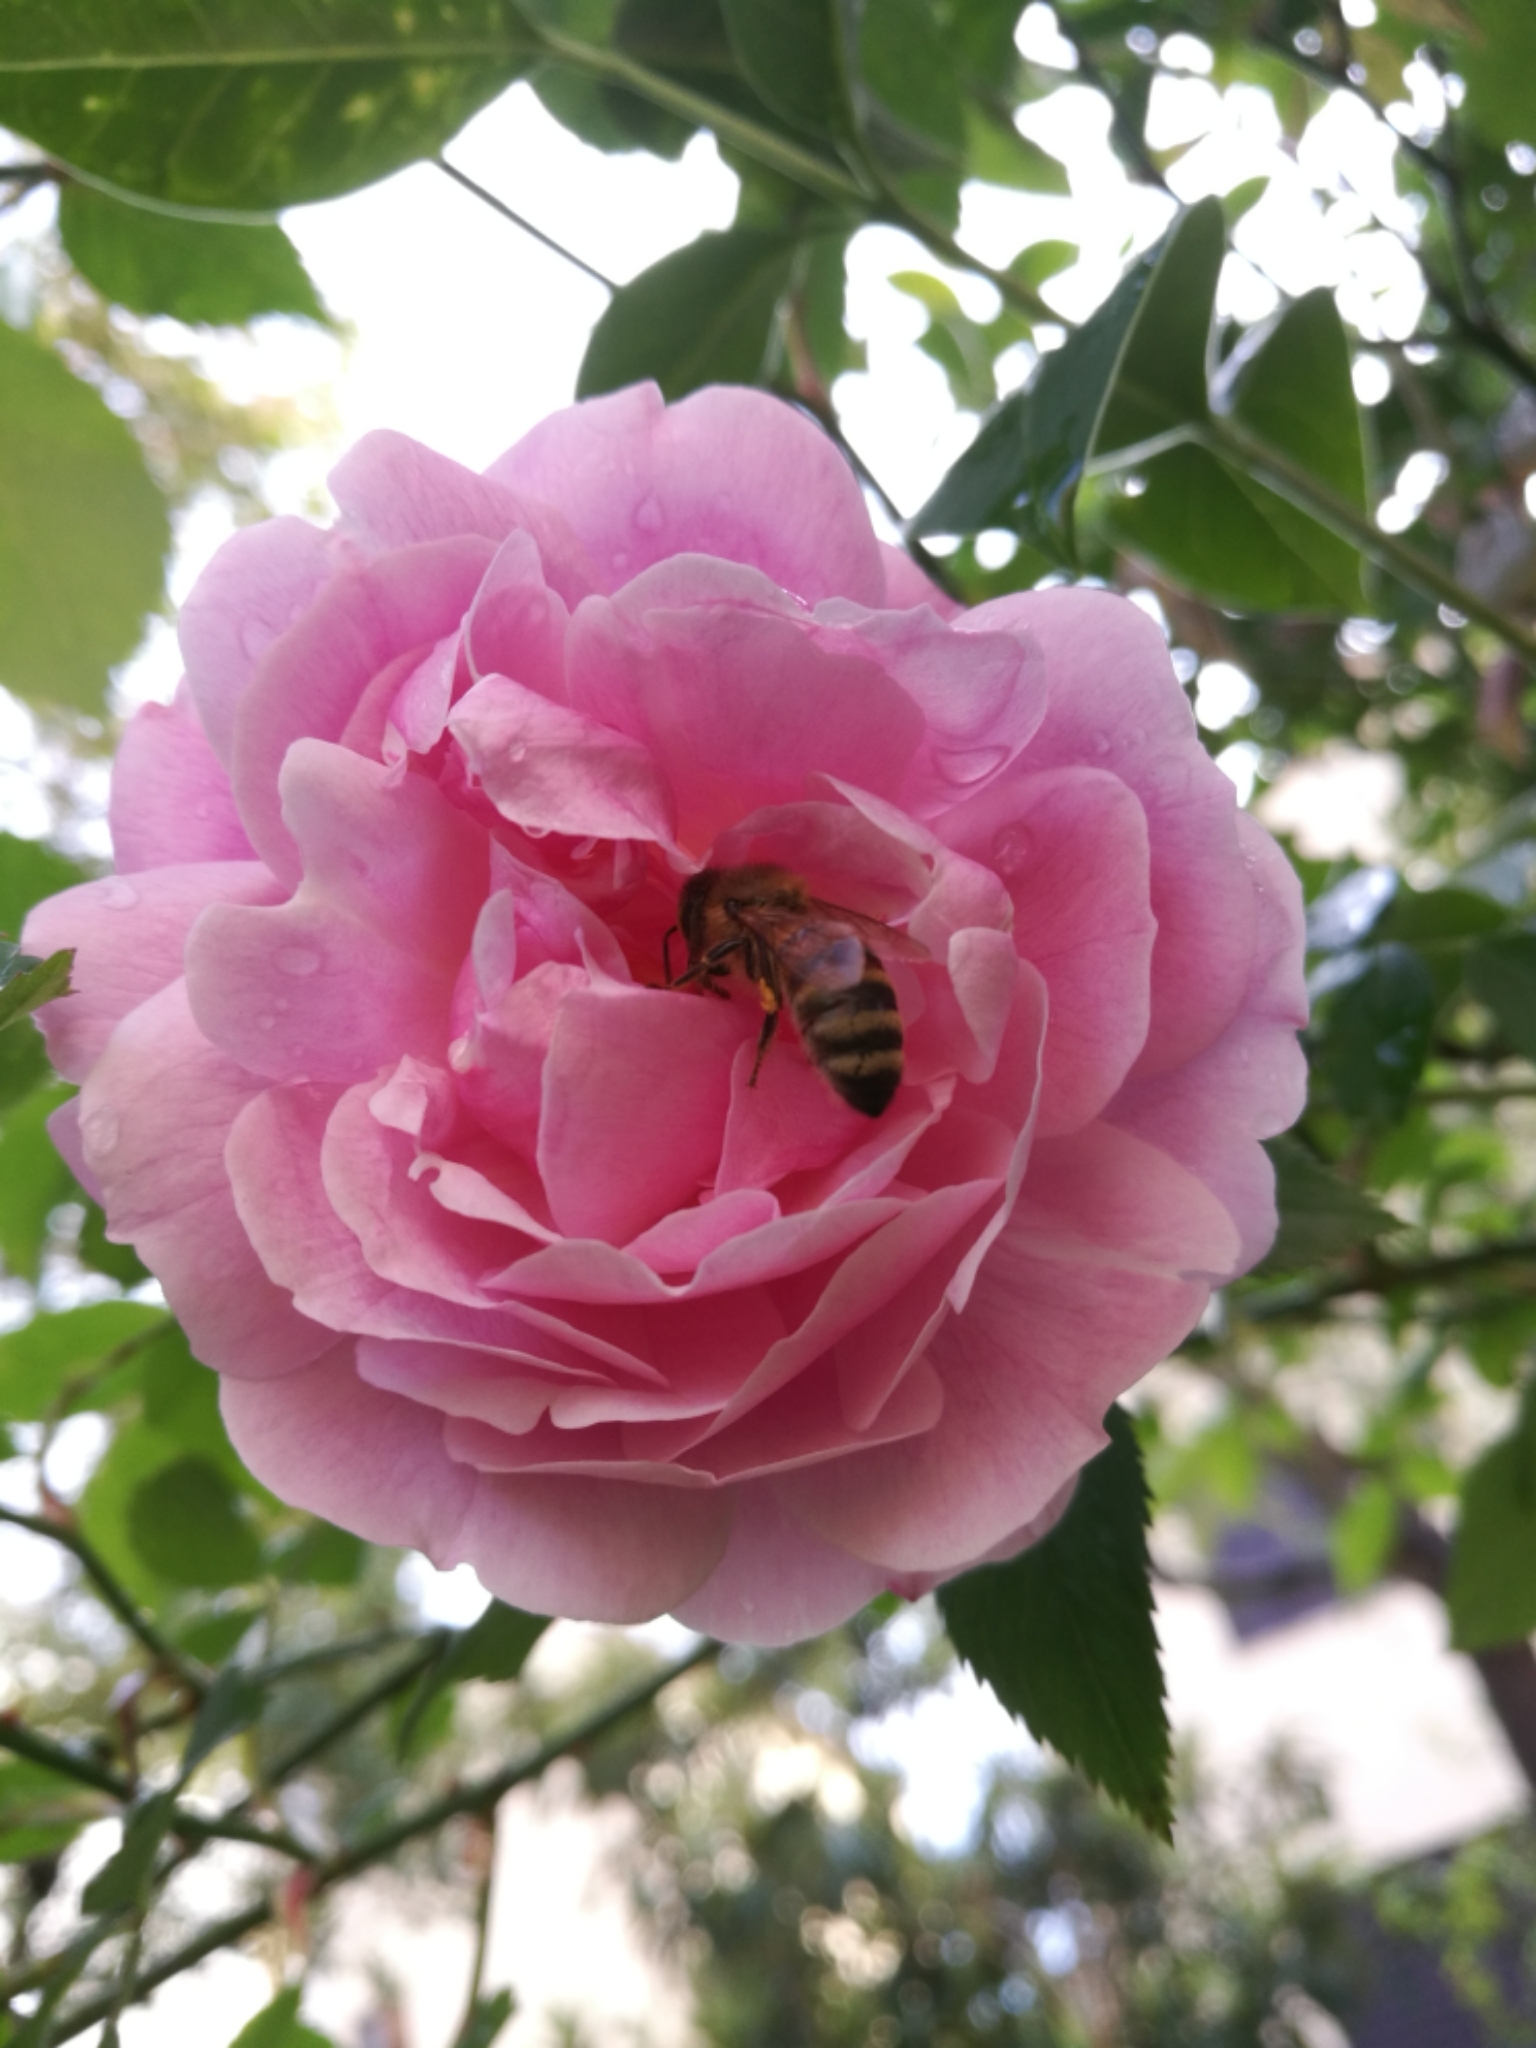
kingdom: Animalia
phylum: Arthropoda
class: Insecta
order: Hymenoptera
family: Apidae
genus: Apis
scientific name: Apis mellifera
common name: Honey bee
